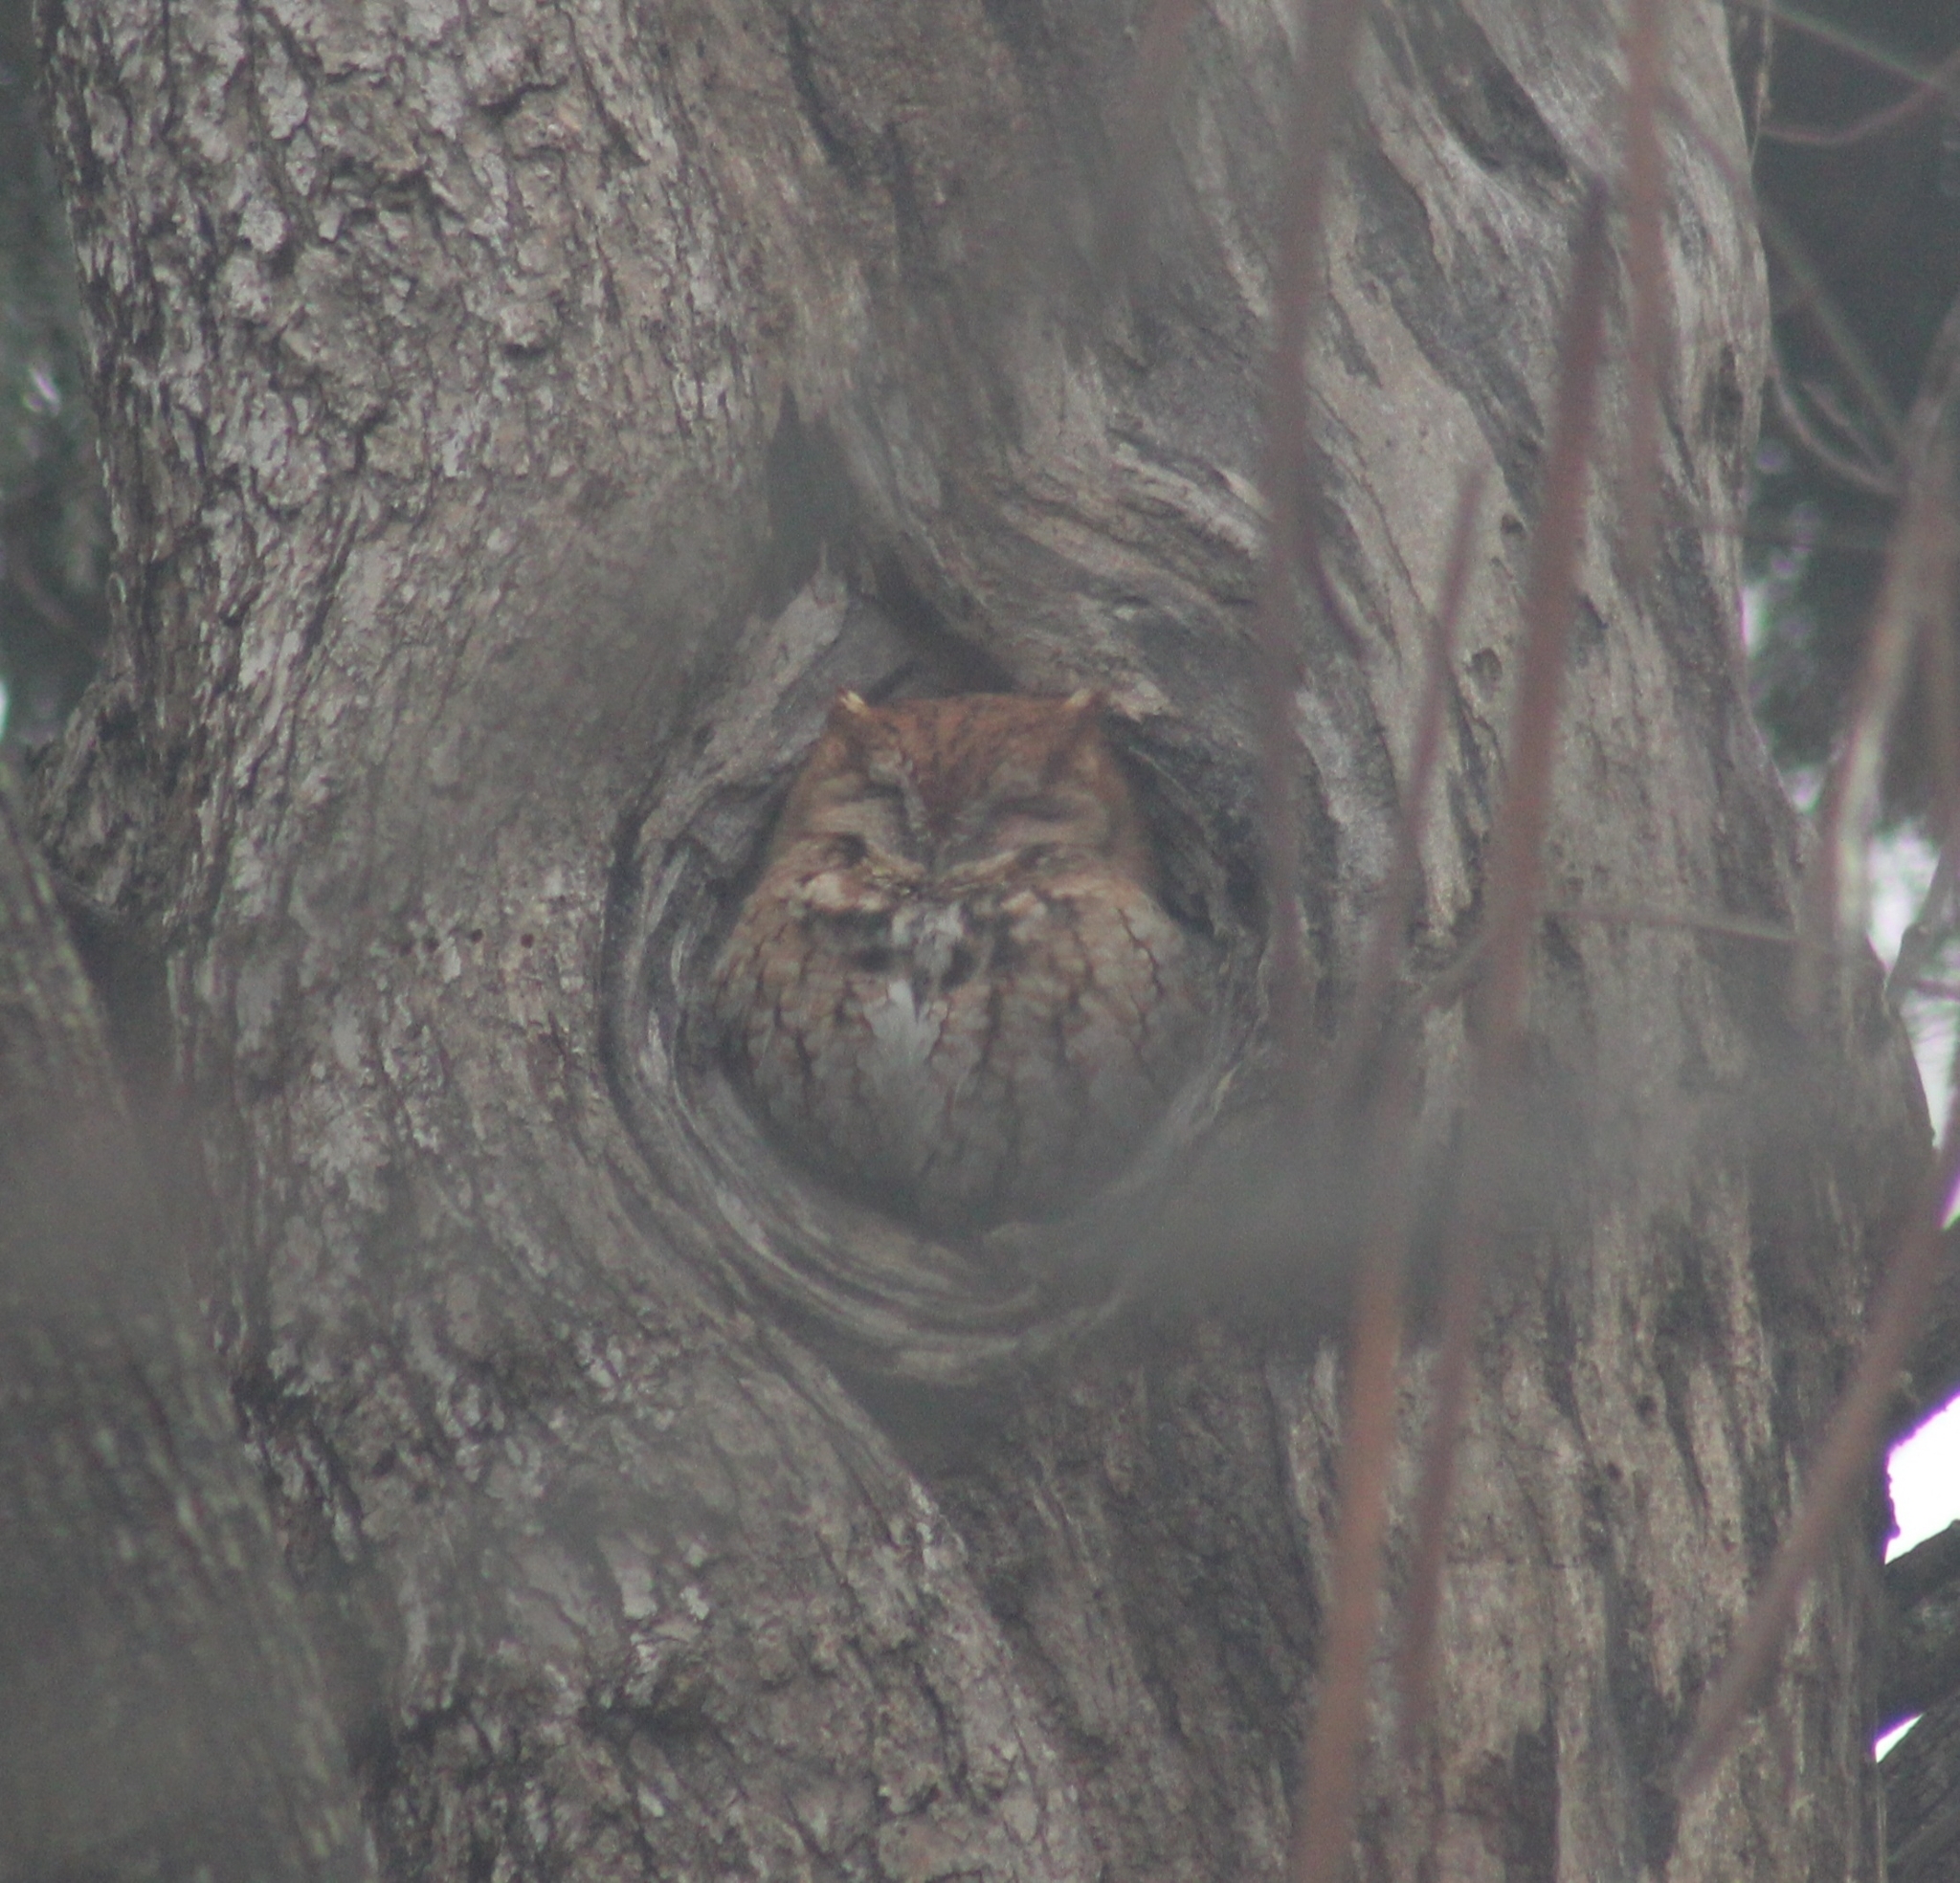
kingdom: Animalia
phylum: Chordata
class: Aves
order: Strigiformes
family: Strigidae
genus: Megascops
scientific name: Megascops asio
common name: Eastern screech-owl
